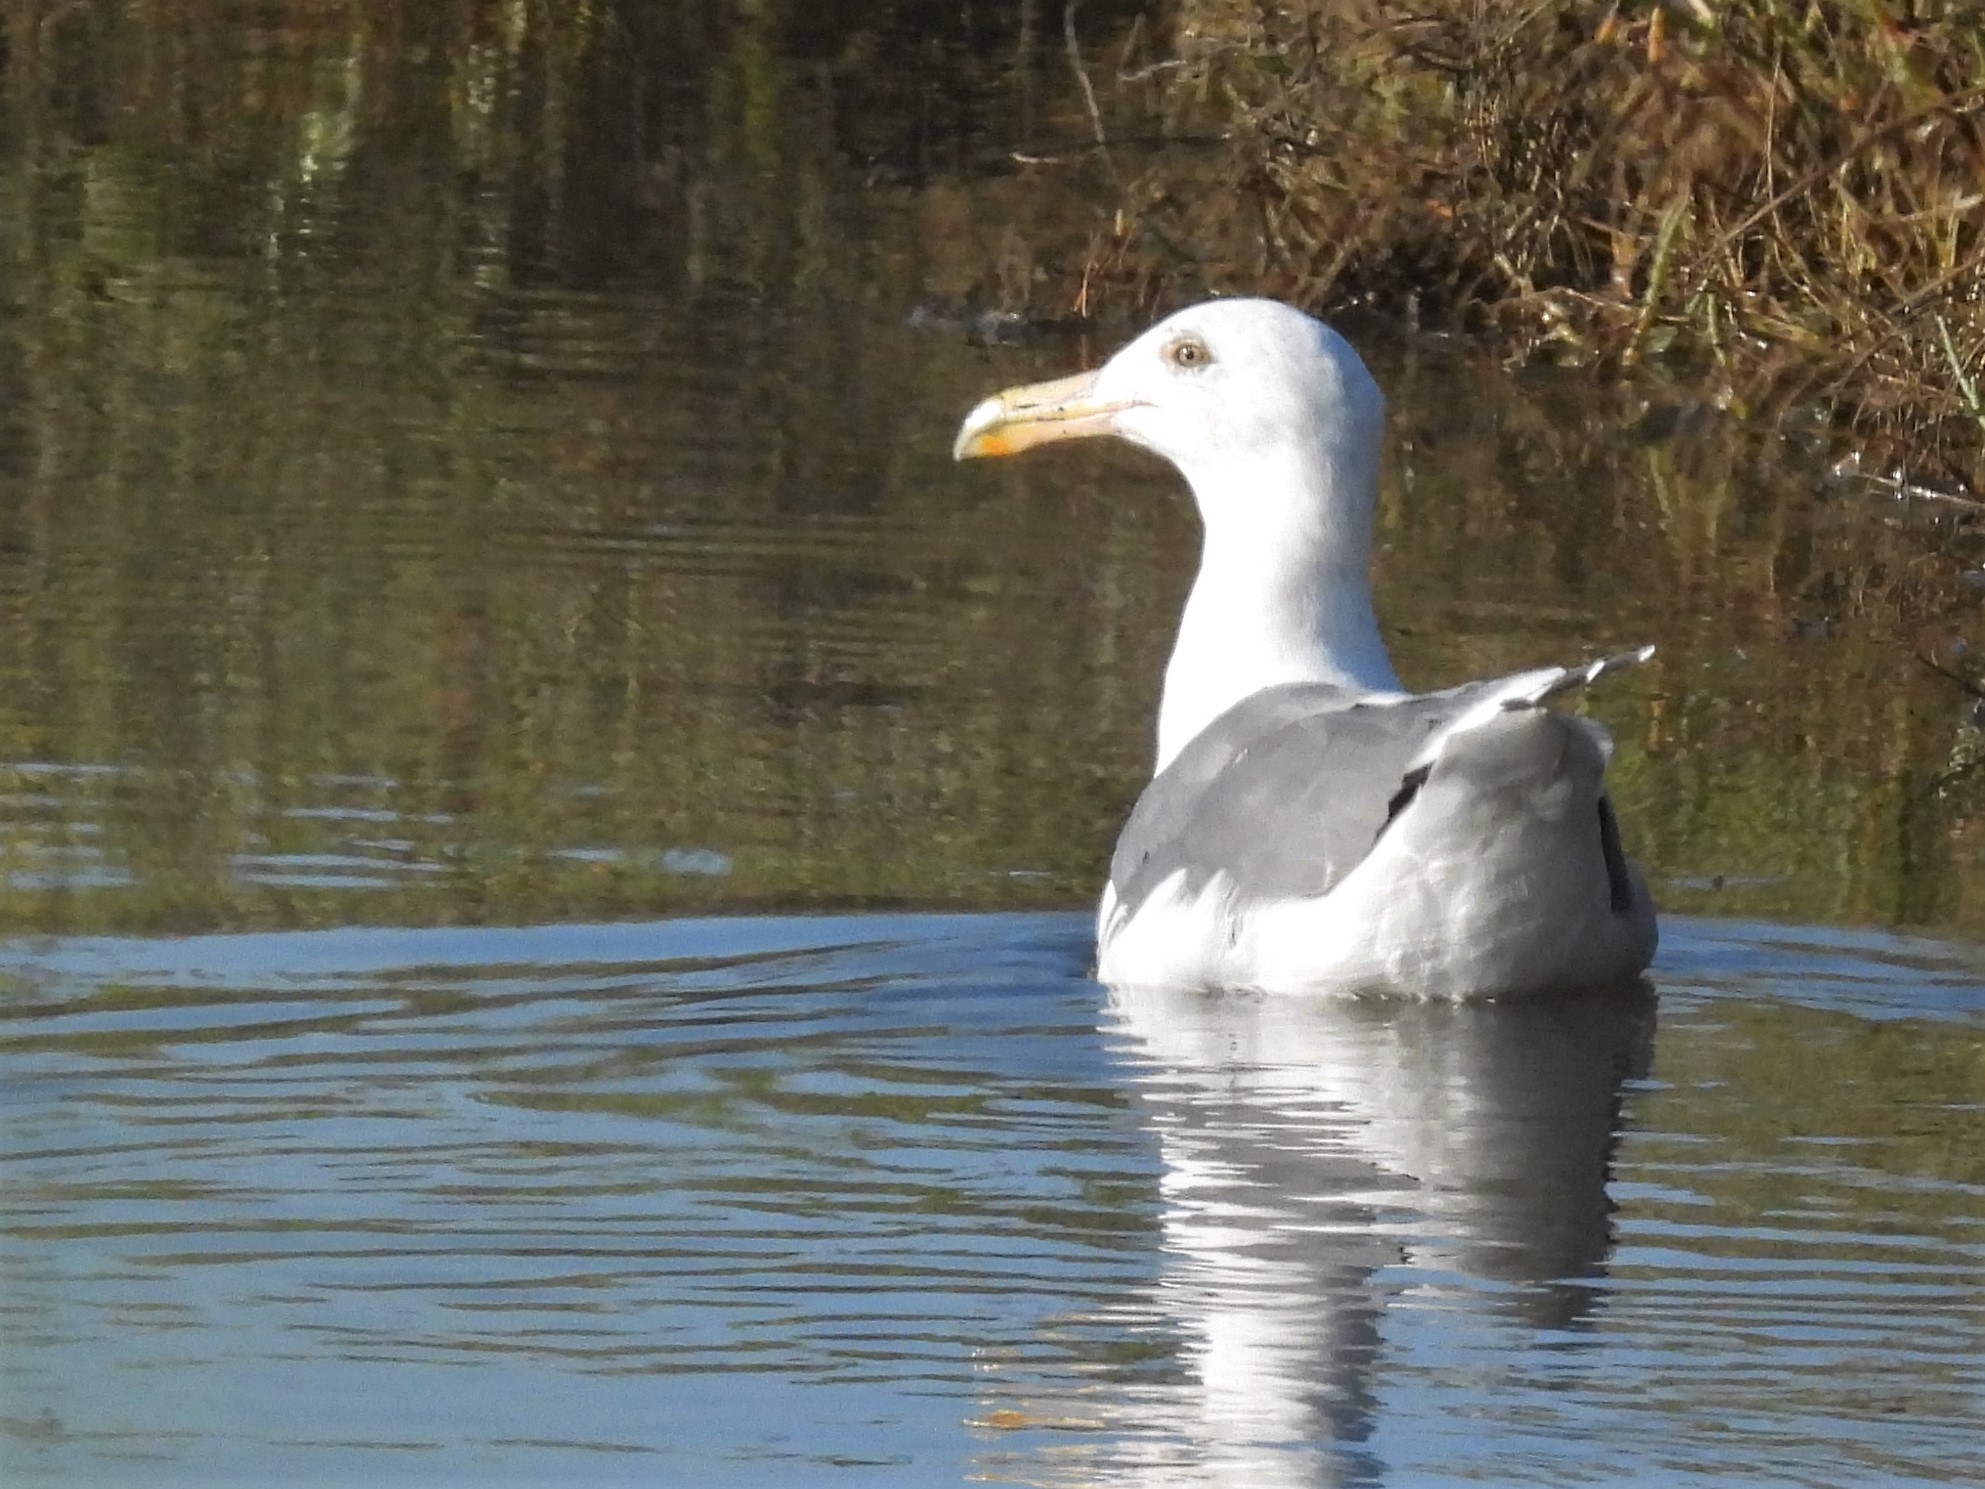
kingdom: Animalia
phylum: Chordata
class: Aves
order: Charadriiformes
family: Laridae
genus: Larus
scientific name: Larus occidentalis
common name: Western gull
